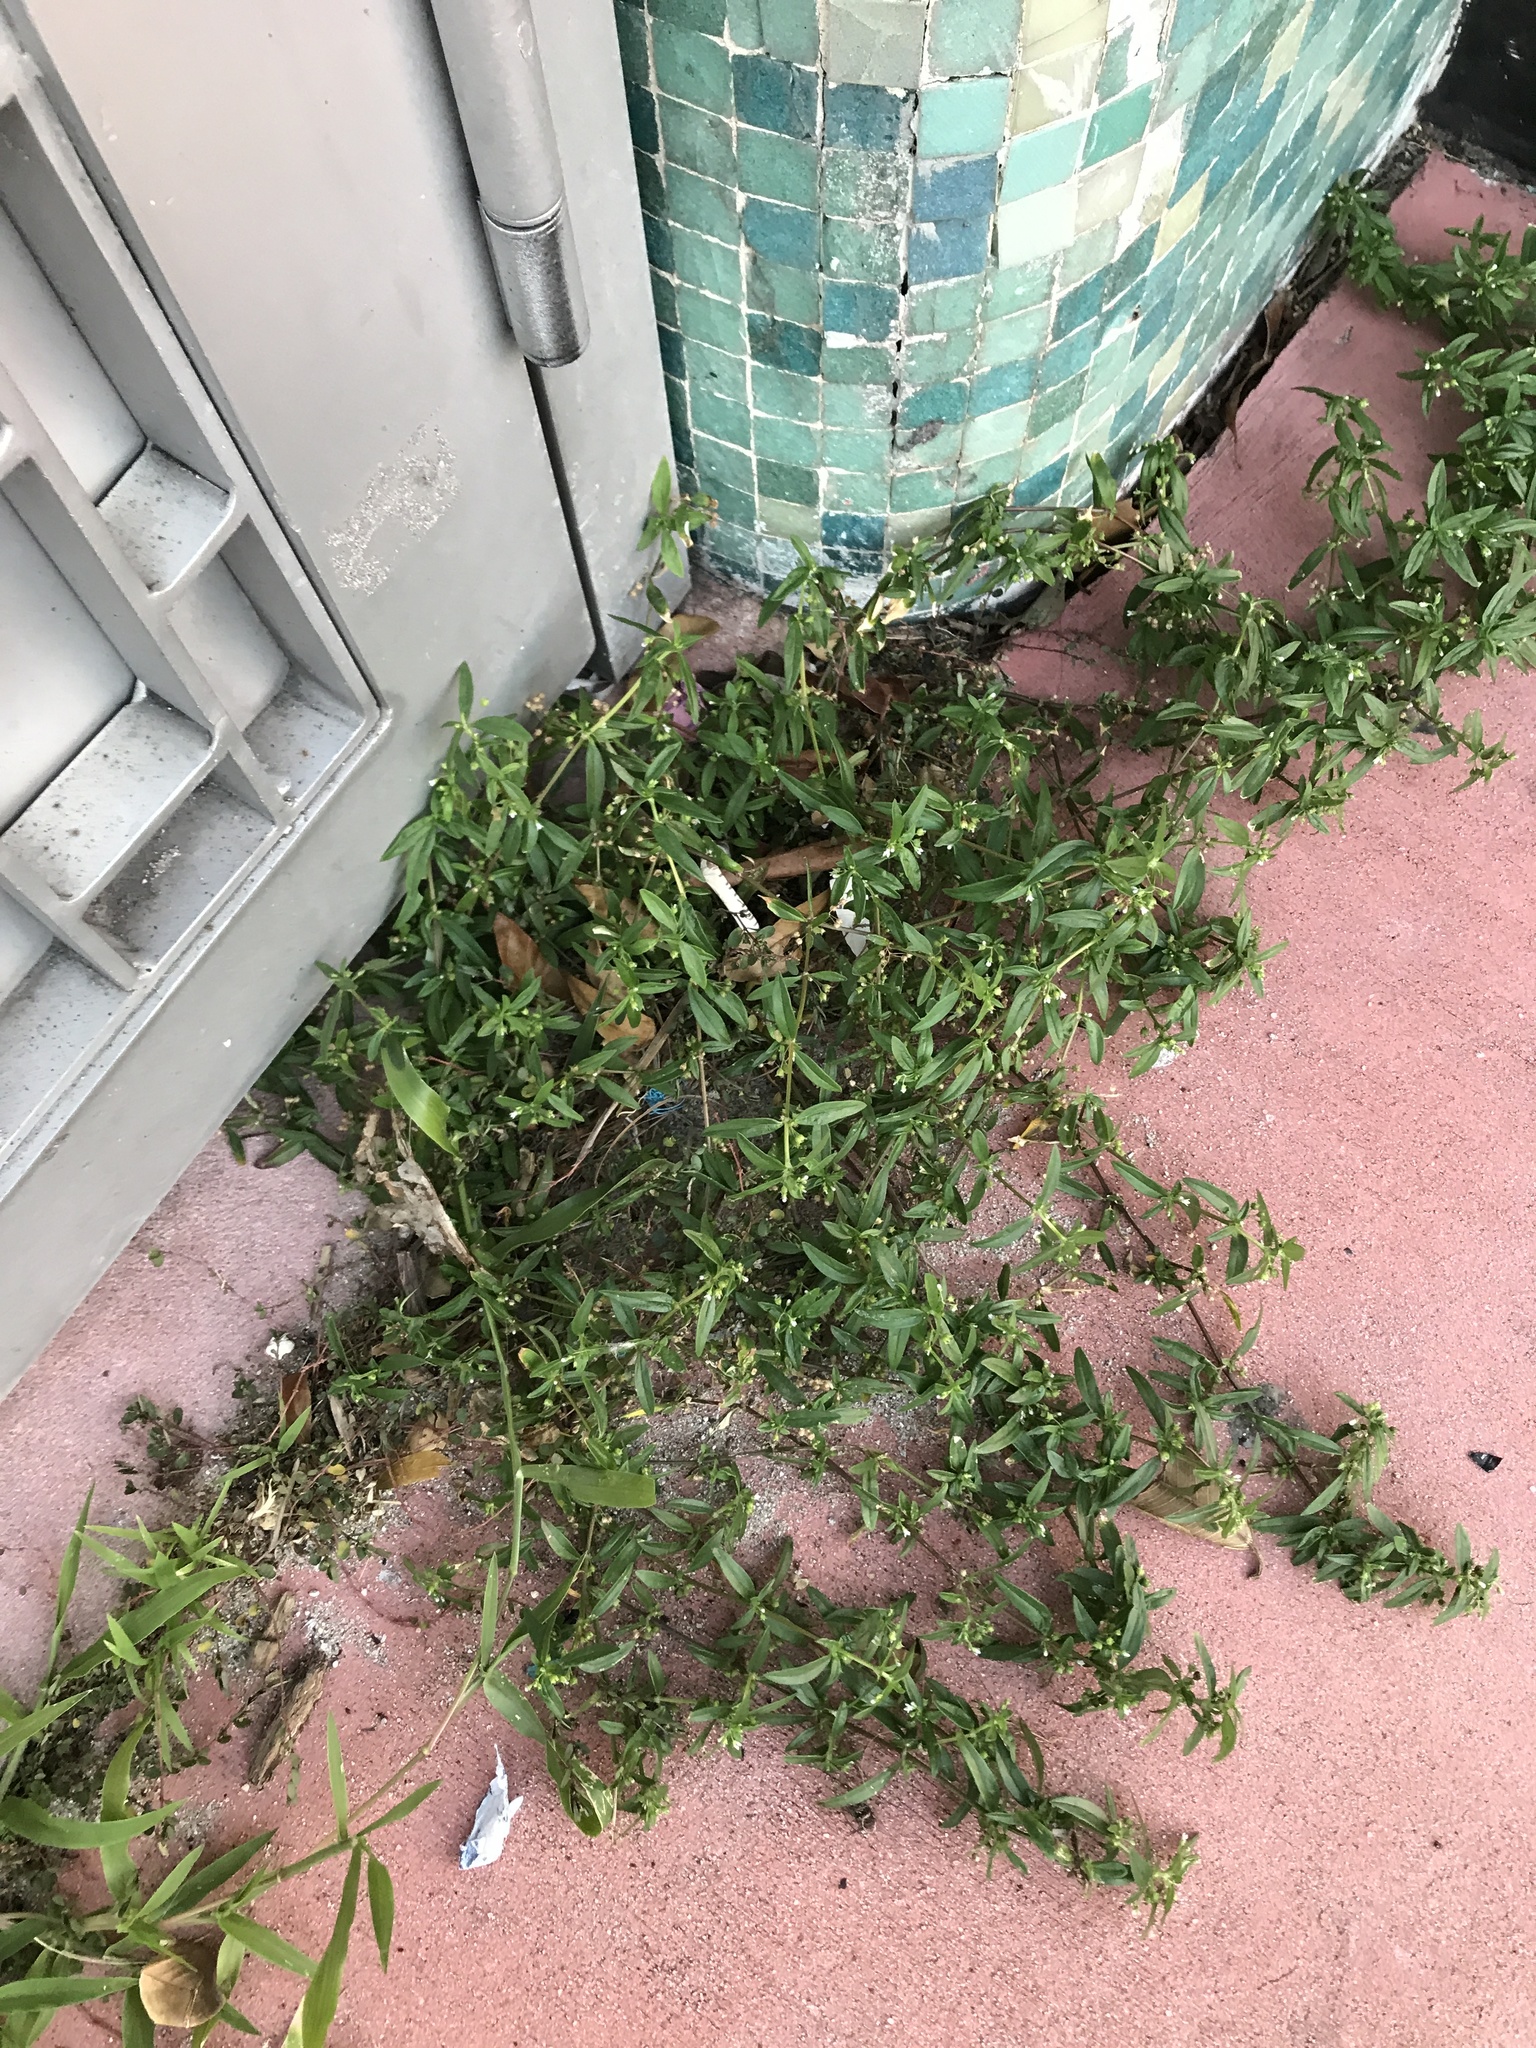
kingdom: Plantae
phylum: Tracheophyta
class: Magnoliopsida
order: Gentianales
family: Rubiaceae
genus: Oldenlandia
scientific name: Oldenlandia corymbosa
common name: Flat-top mille graines
